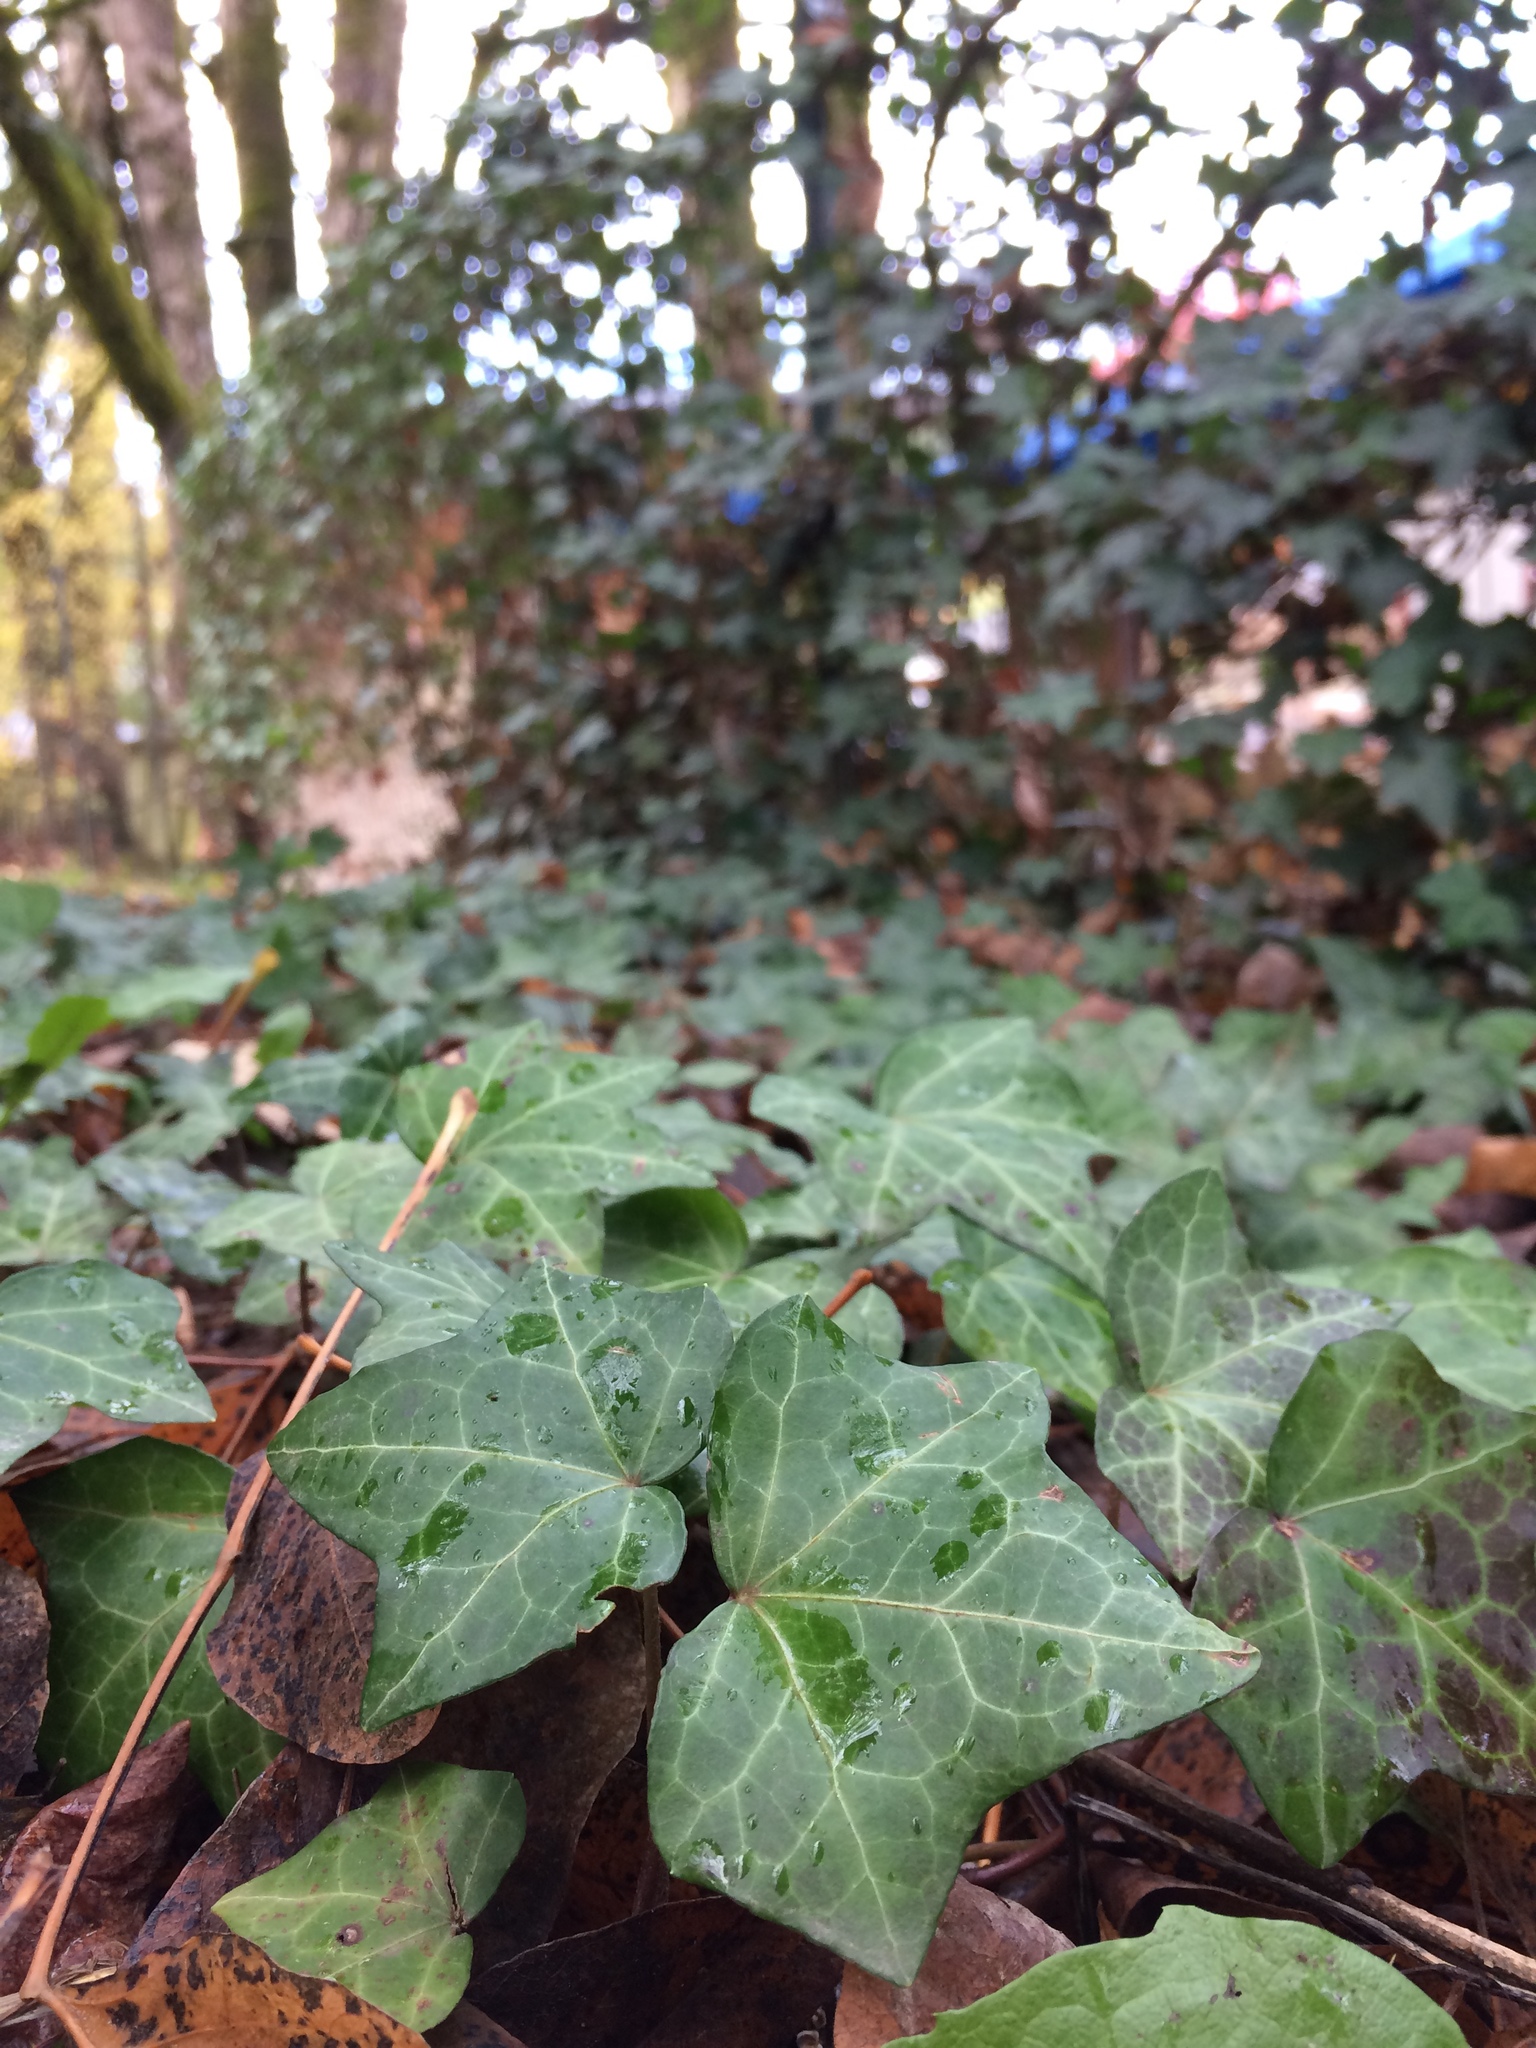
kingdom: Plantae
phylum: Tracheophyta
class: Magnoliopsida
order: Apiales
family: Araliaceae
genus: Hedera
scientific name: Hedera helix
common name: Ivy
